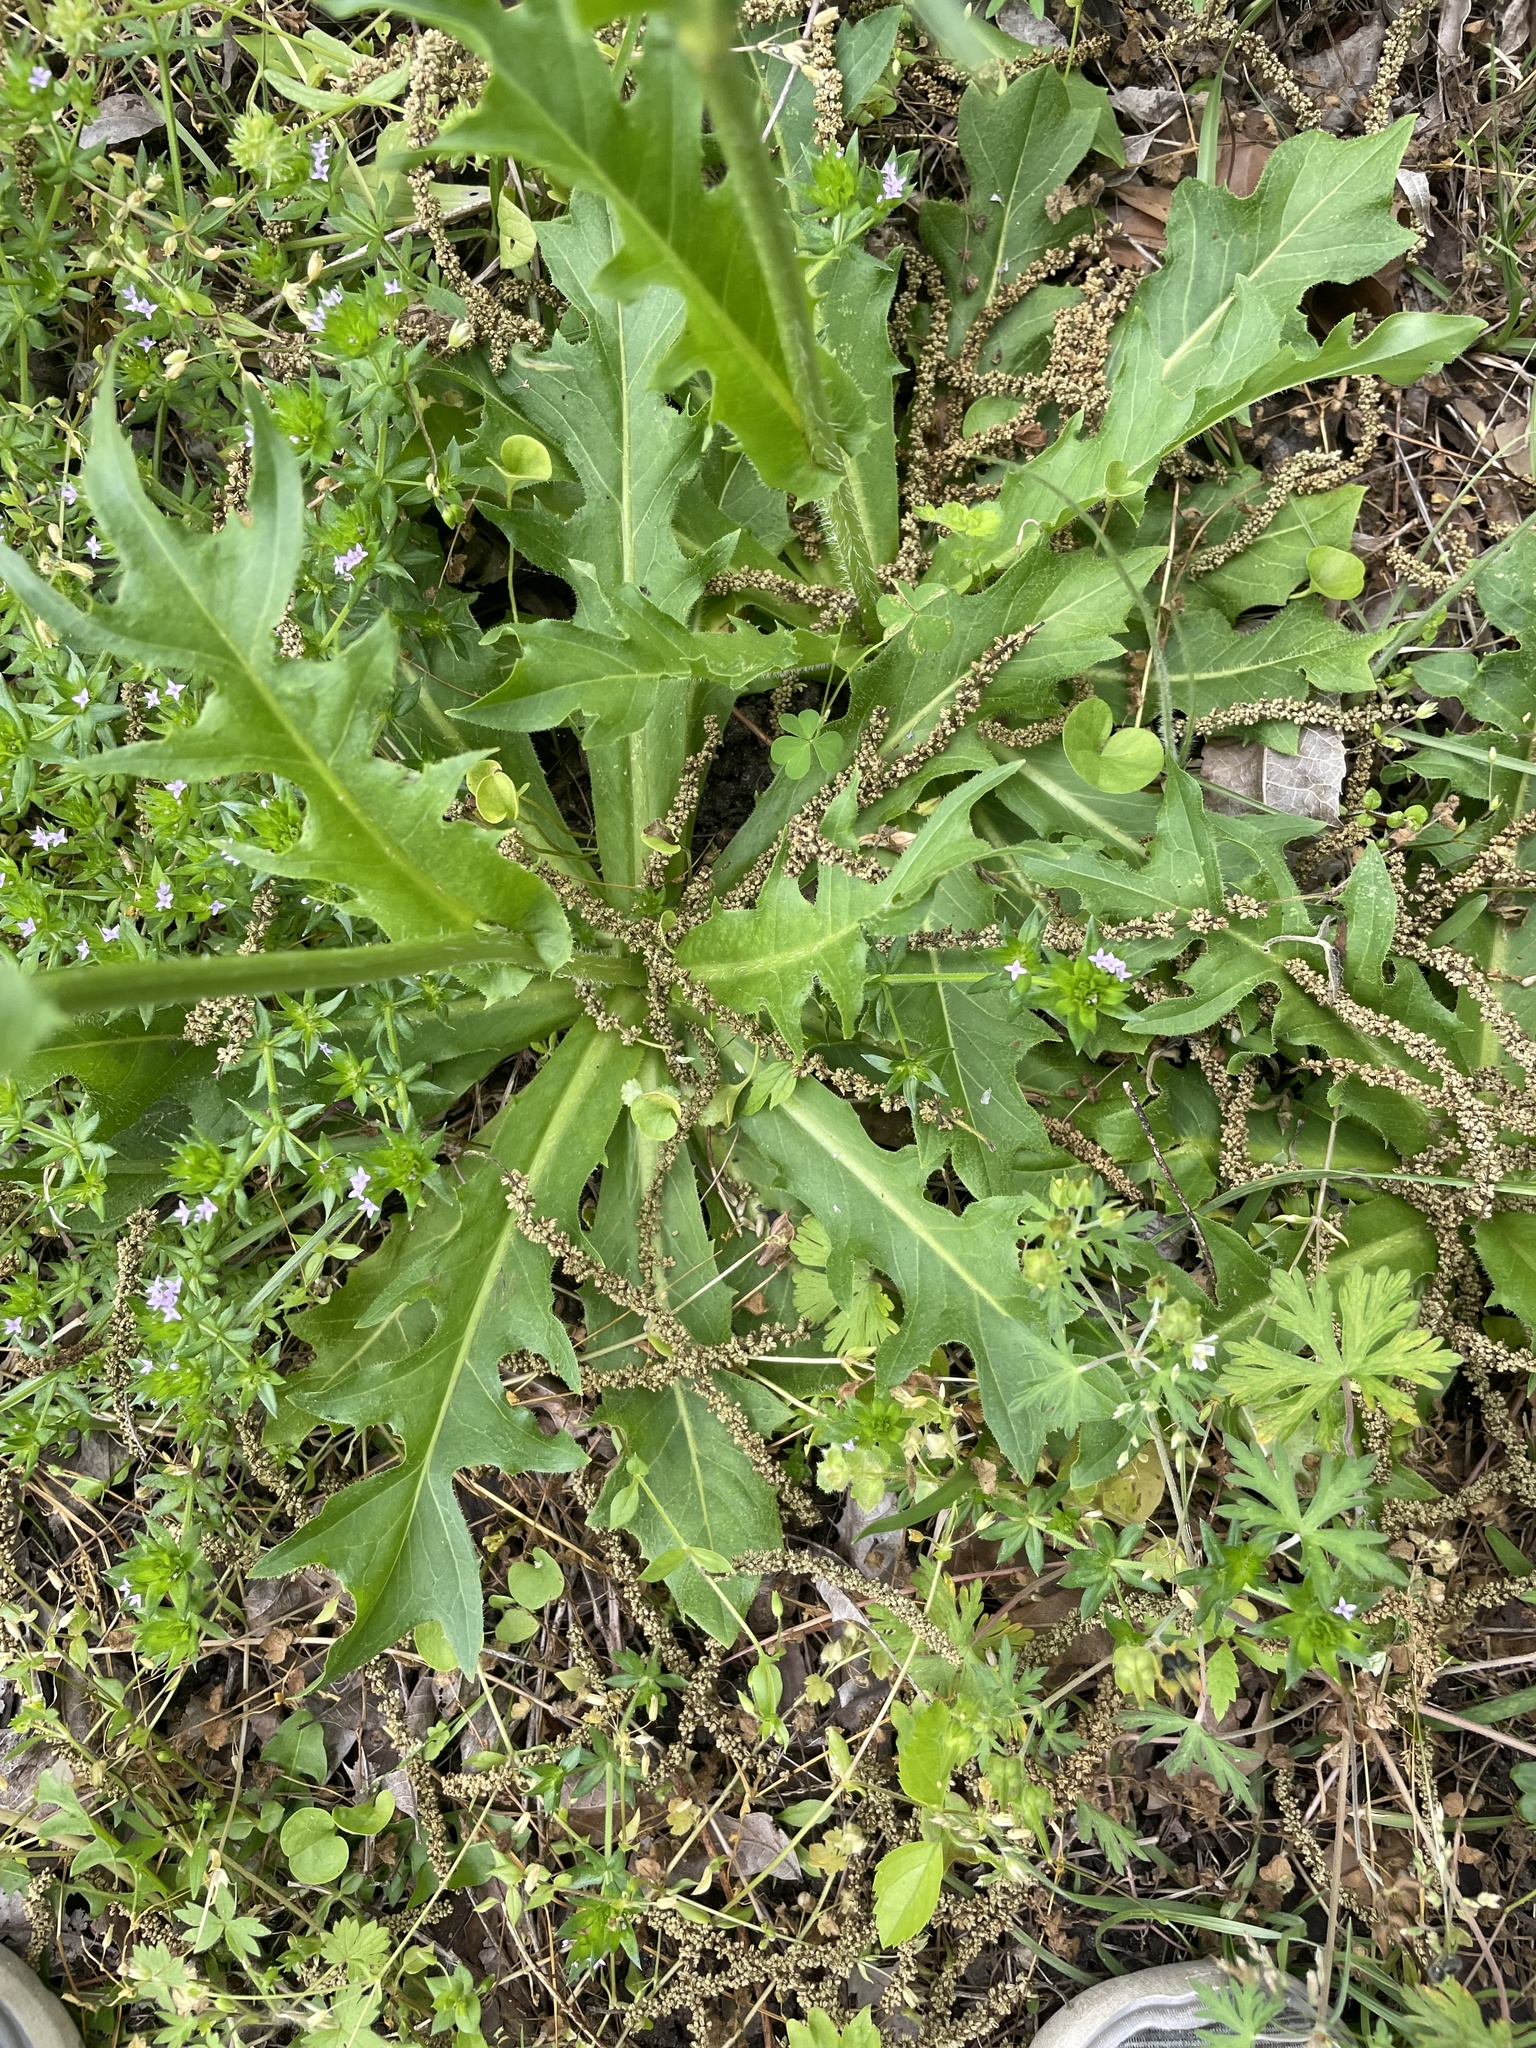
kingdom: Plantae
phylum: Tracheophyta
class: Magnoliopsida
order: Asterales
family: Asteraceae
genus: Hypochaeris
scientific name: Hypochaeris chillensis
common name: Brazilian cat's ear
